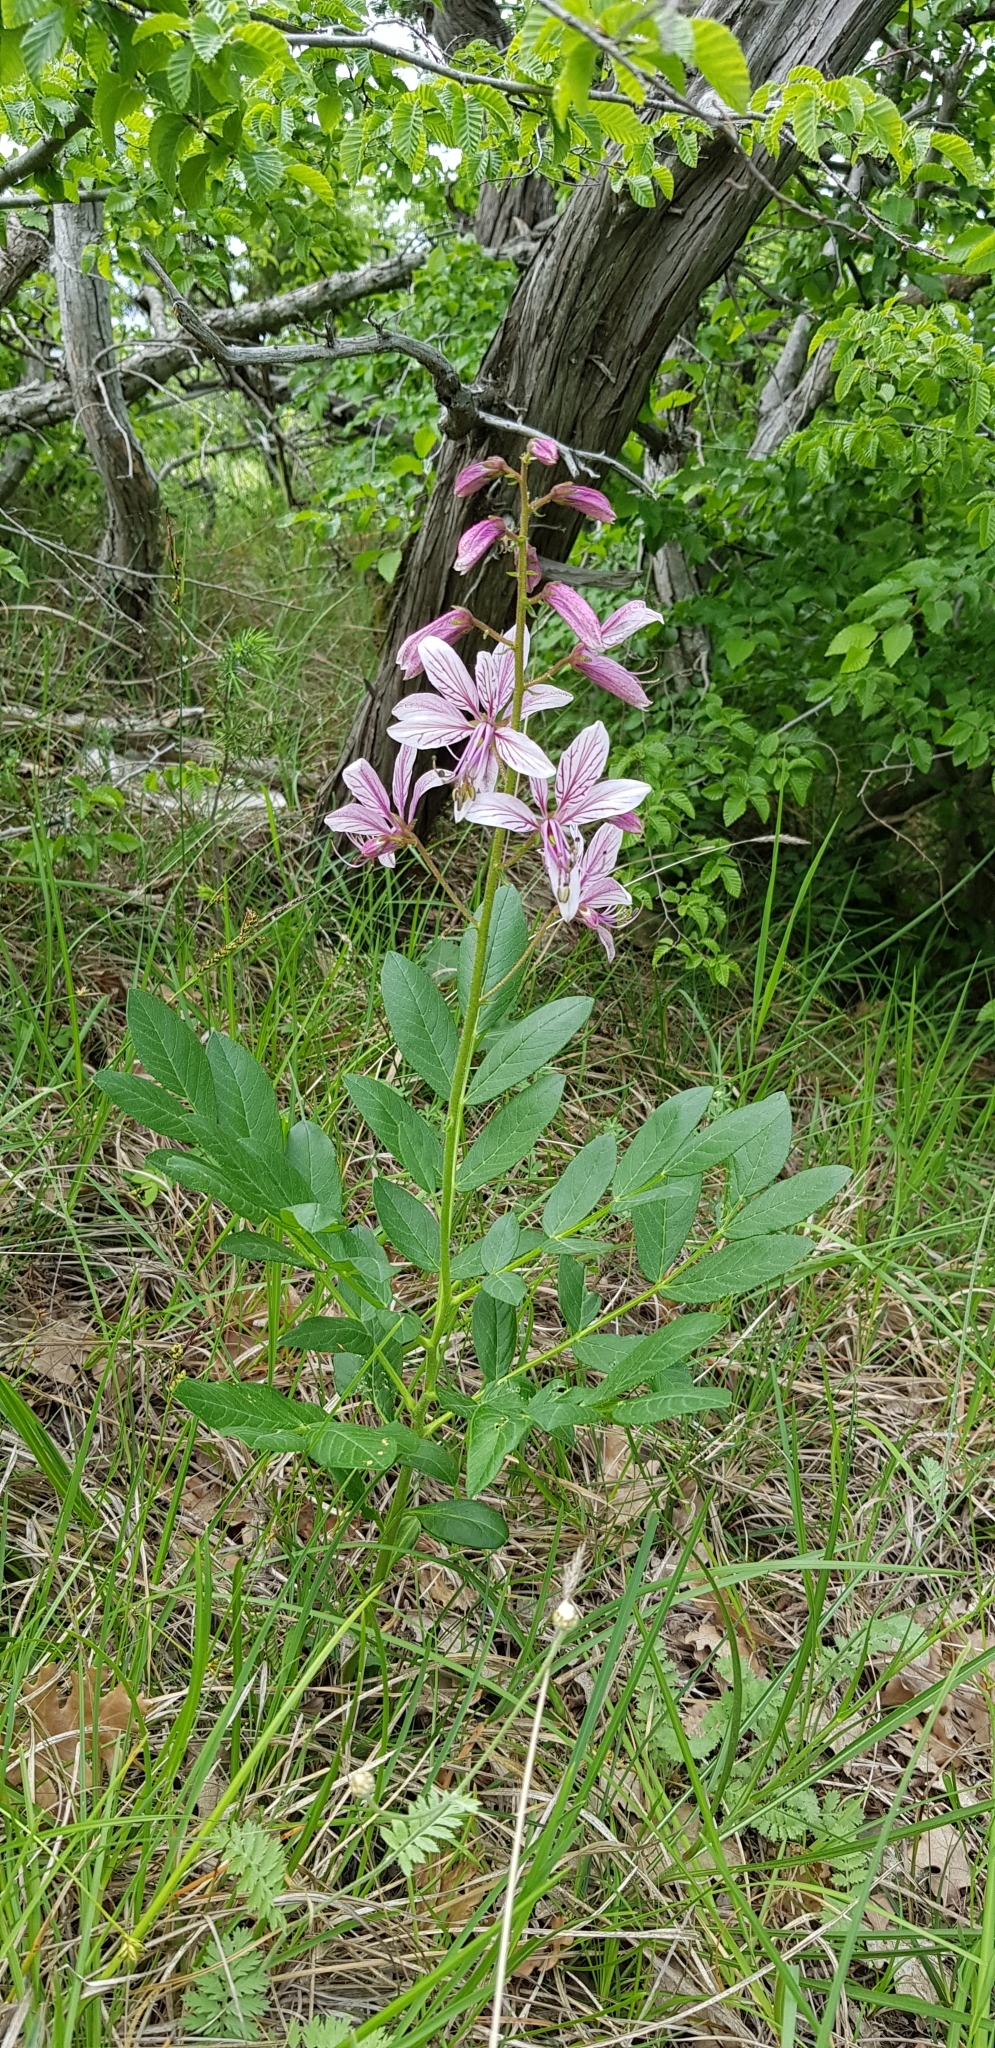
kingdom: Plantae
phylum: Tracheophyta
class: Magnoliopsida
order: Sapindales
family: Rutaceae
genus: Dictamnus
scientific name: Dictamnus albus
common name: Gasplant
